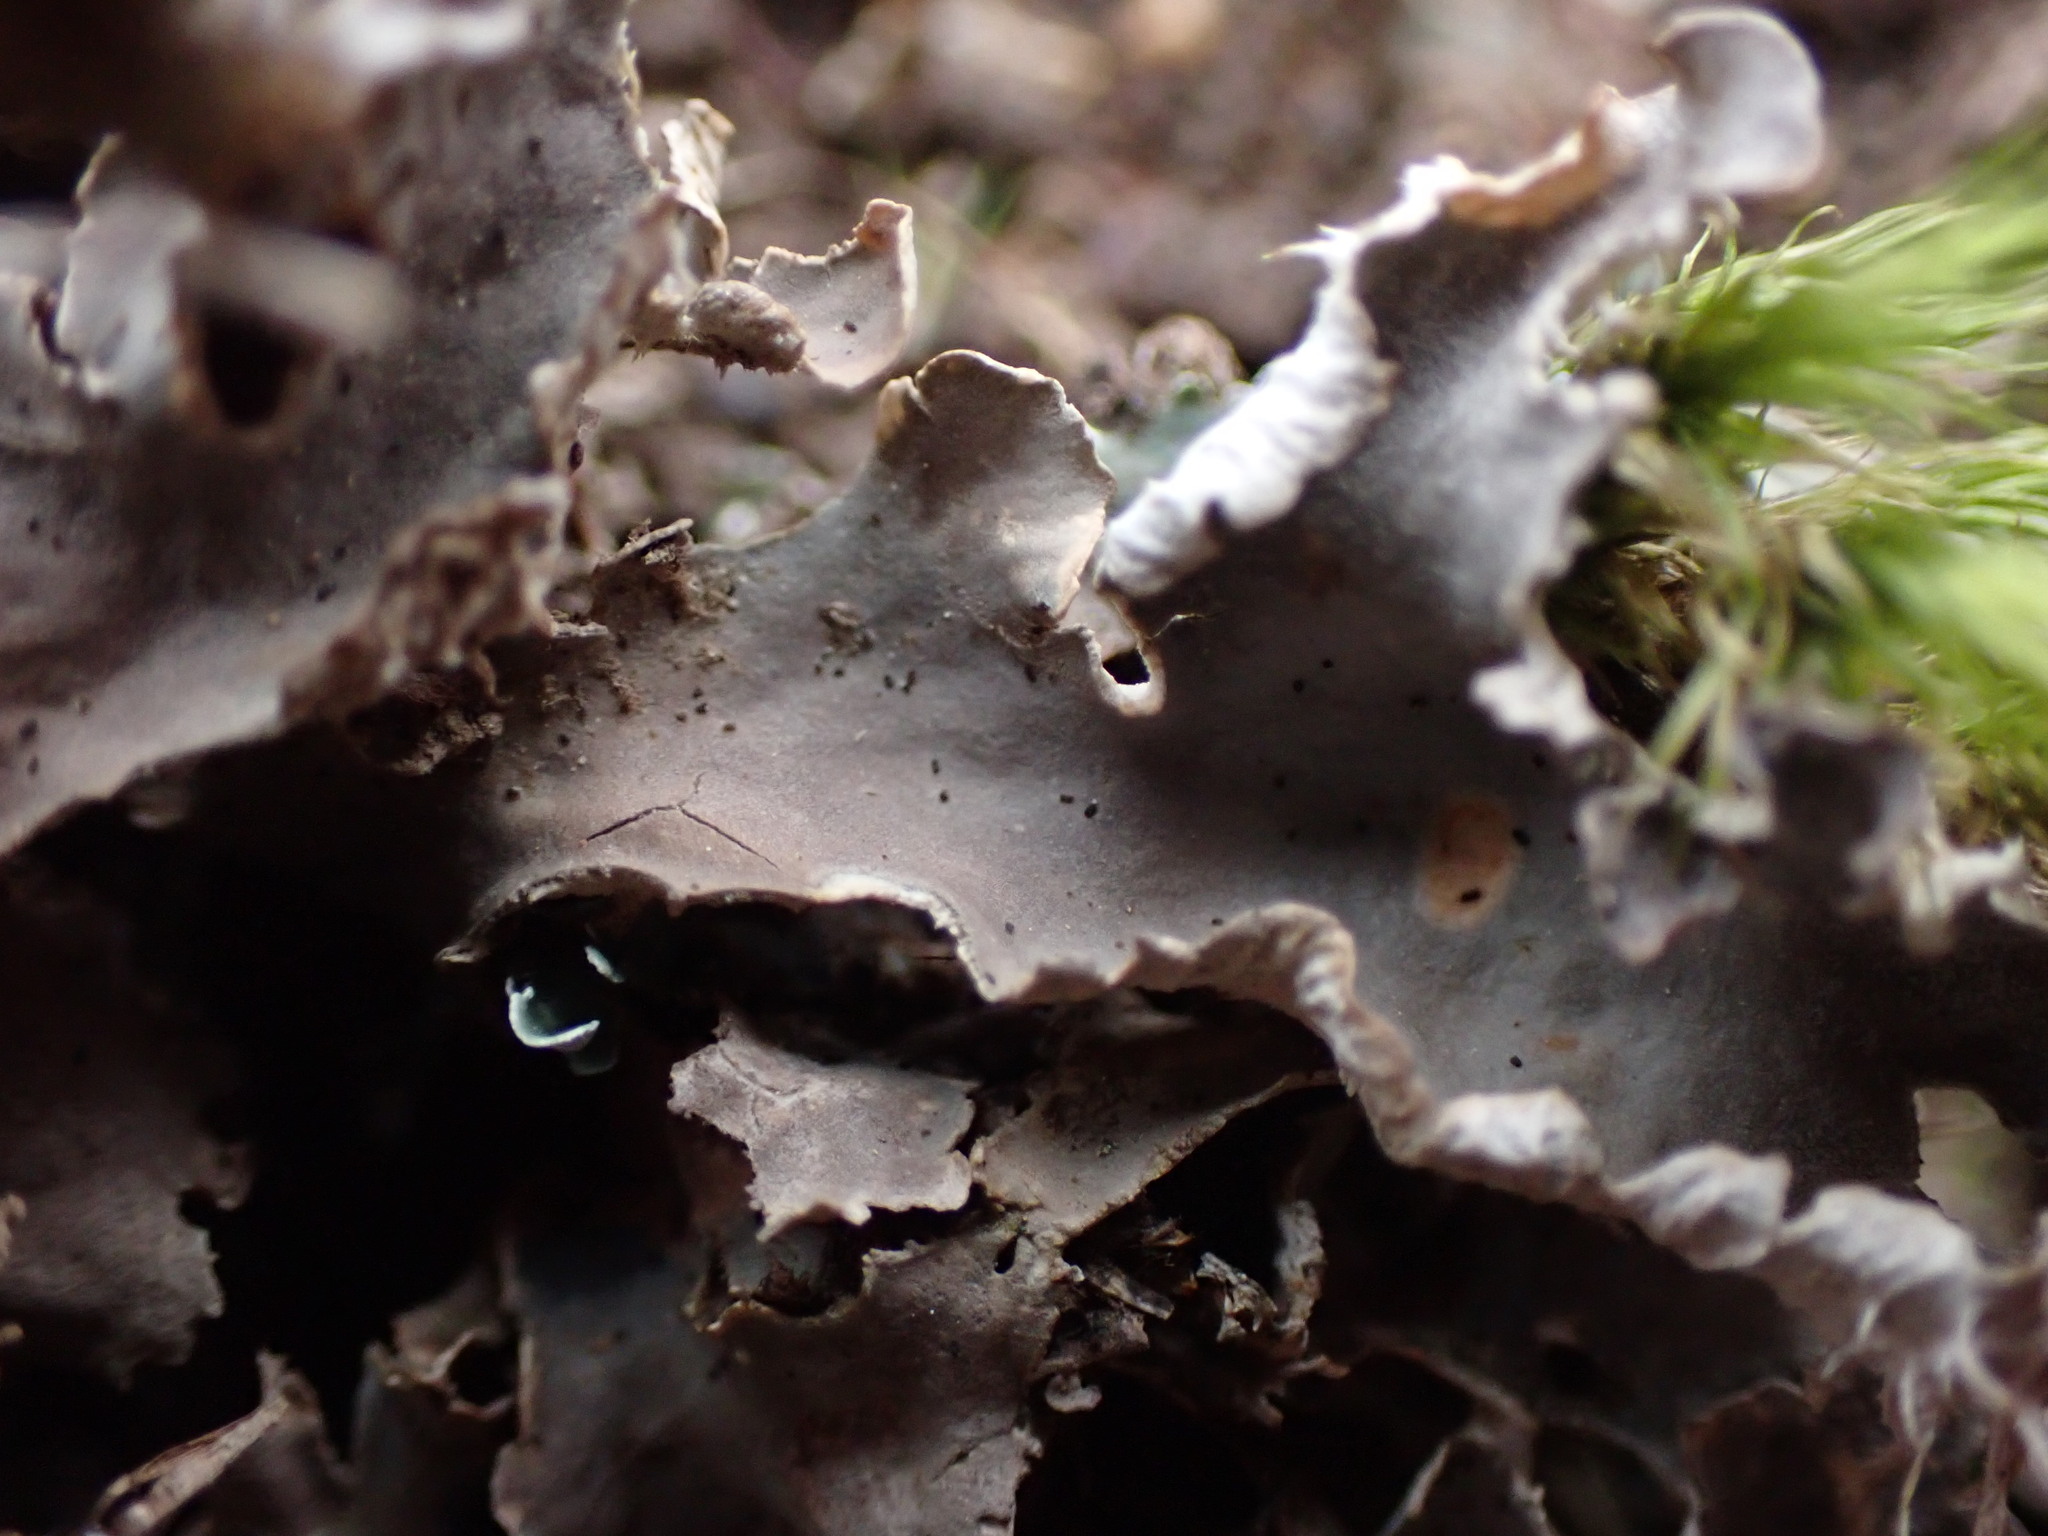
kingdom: Fungi
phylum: Ascomycota
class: Lecanoromycetes
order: Peltigerales
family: Peltigeraceae
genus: Peltigera
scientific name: Peltigera praetextata
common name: Scaly dog-lichen
